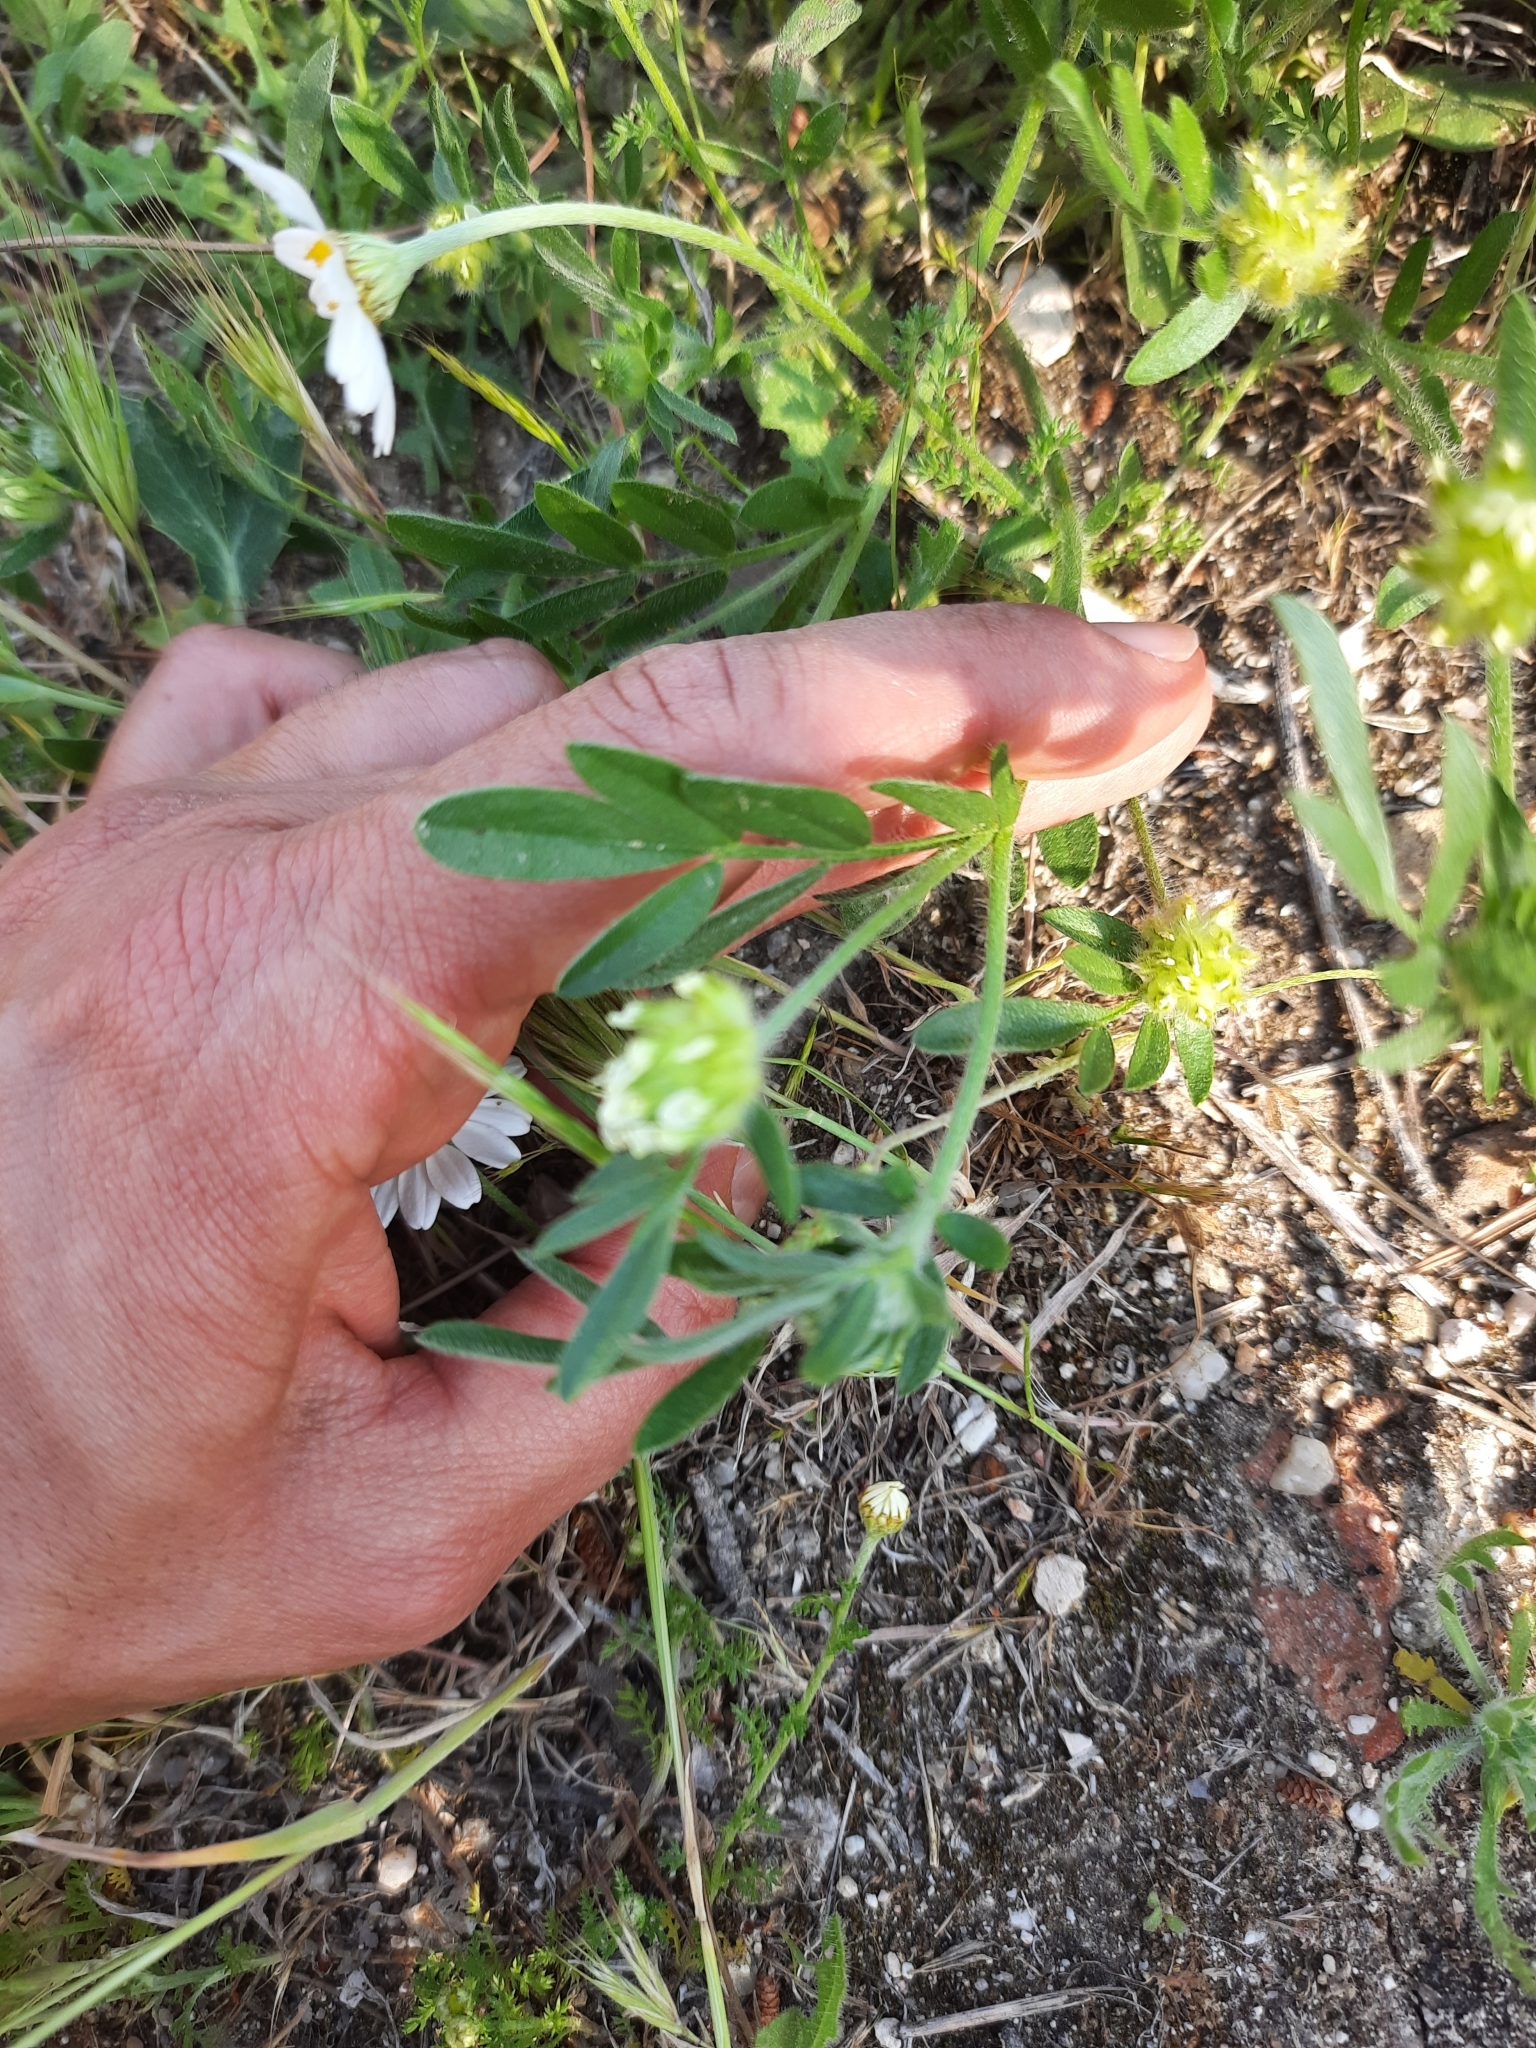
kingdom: Plantae
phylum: Tracheophyta
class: Magnoliopsida
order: Fabales
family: Fabaceae
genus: Anthyllis
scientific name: Anthyllis cornicina
